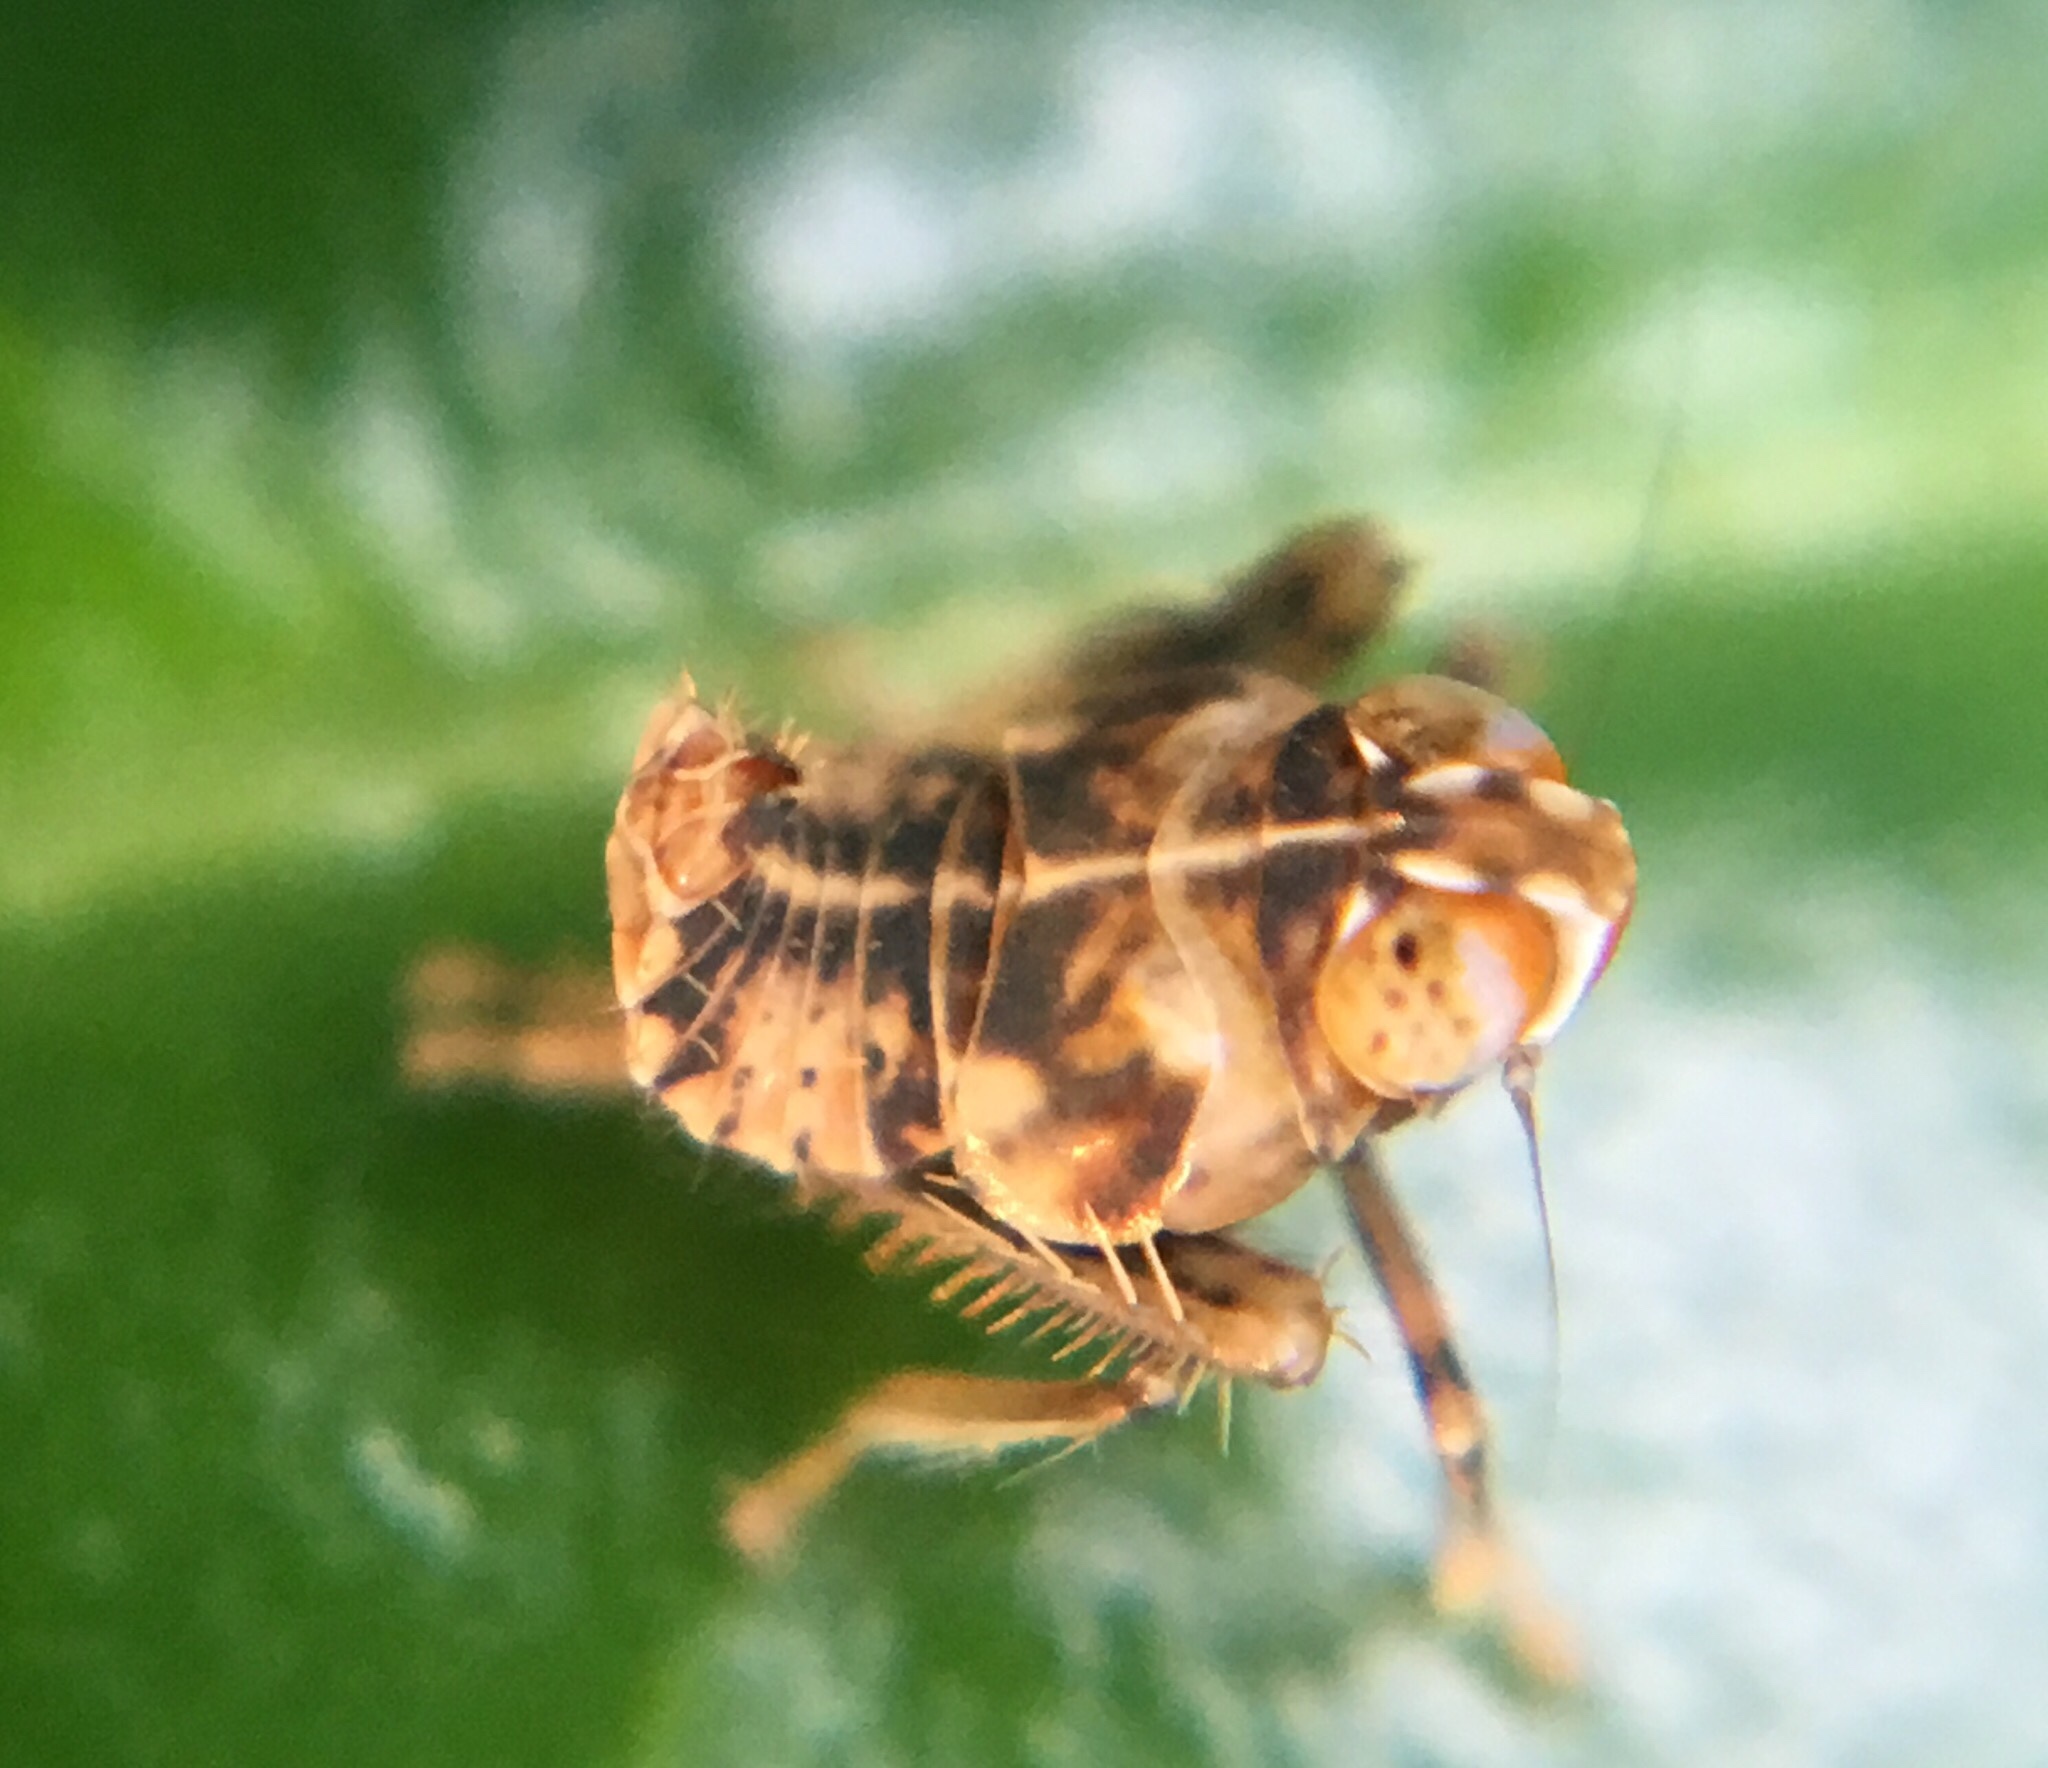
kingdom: Animalia
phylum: Arthropoda
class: Insecta
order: Hemiptera
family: Cicadellidae
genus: Jikradia
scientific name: Jikradia olitoria
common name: Coppery leafhopper
